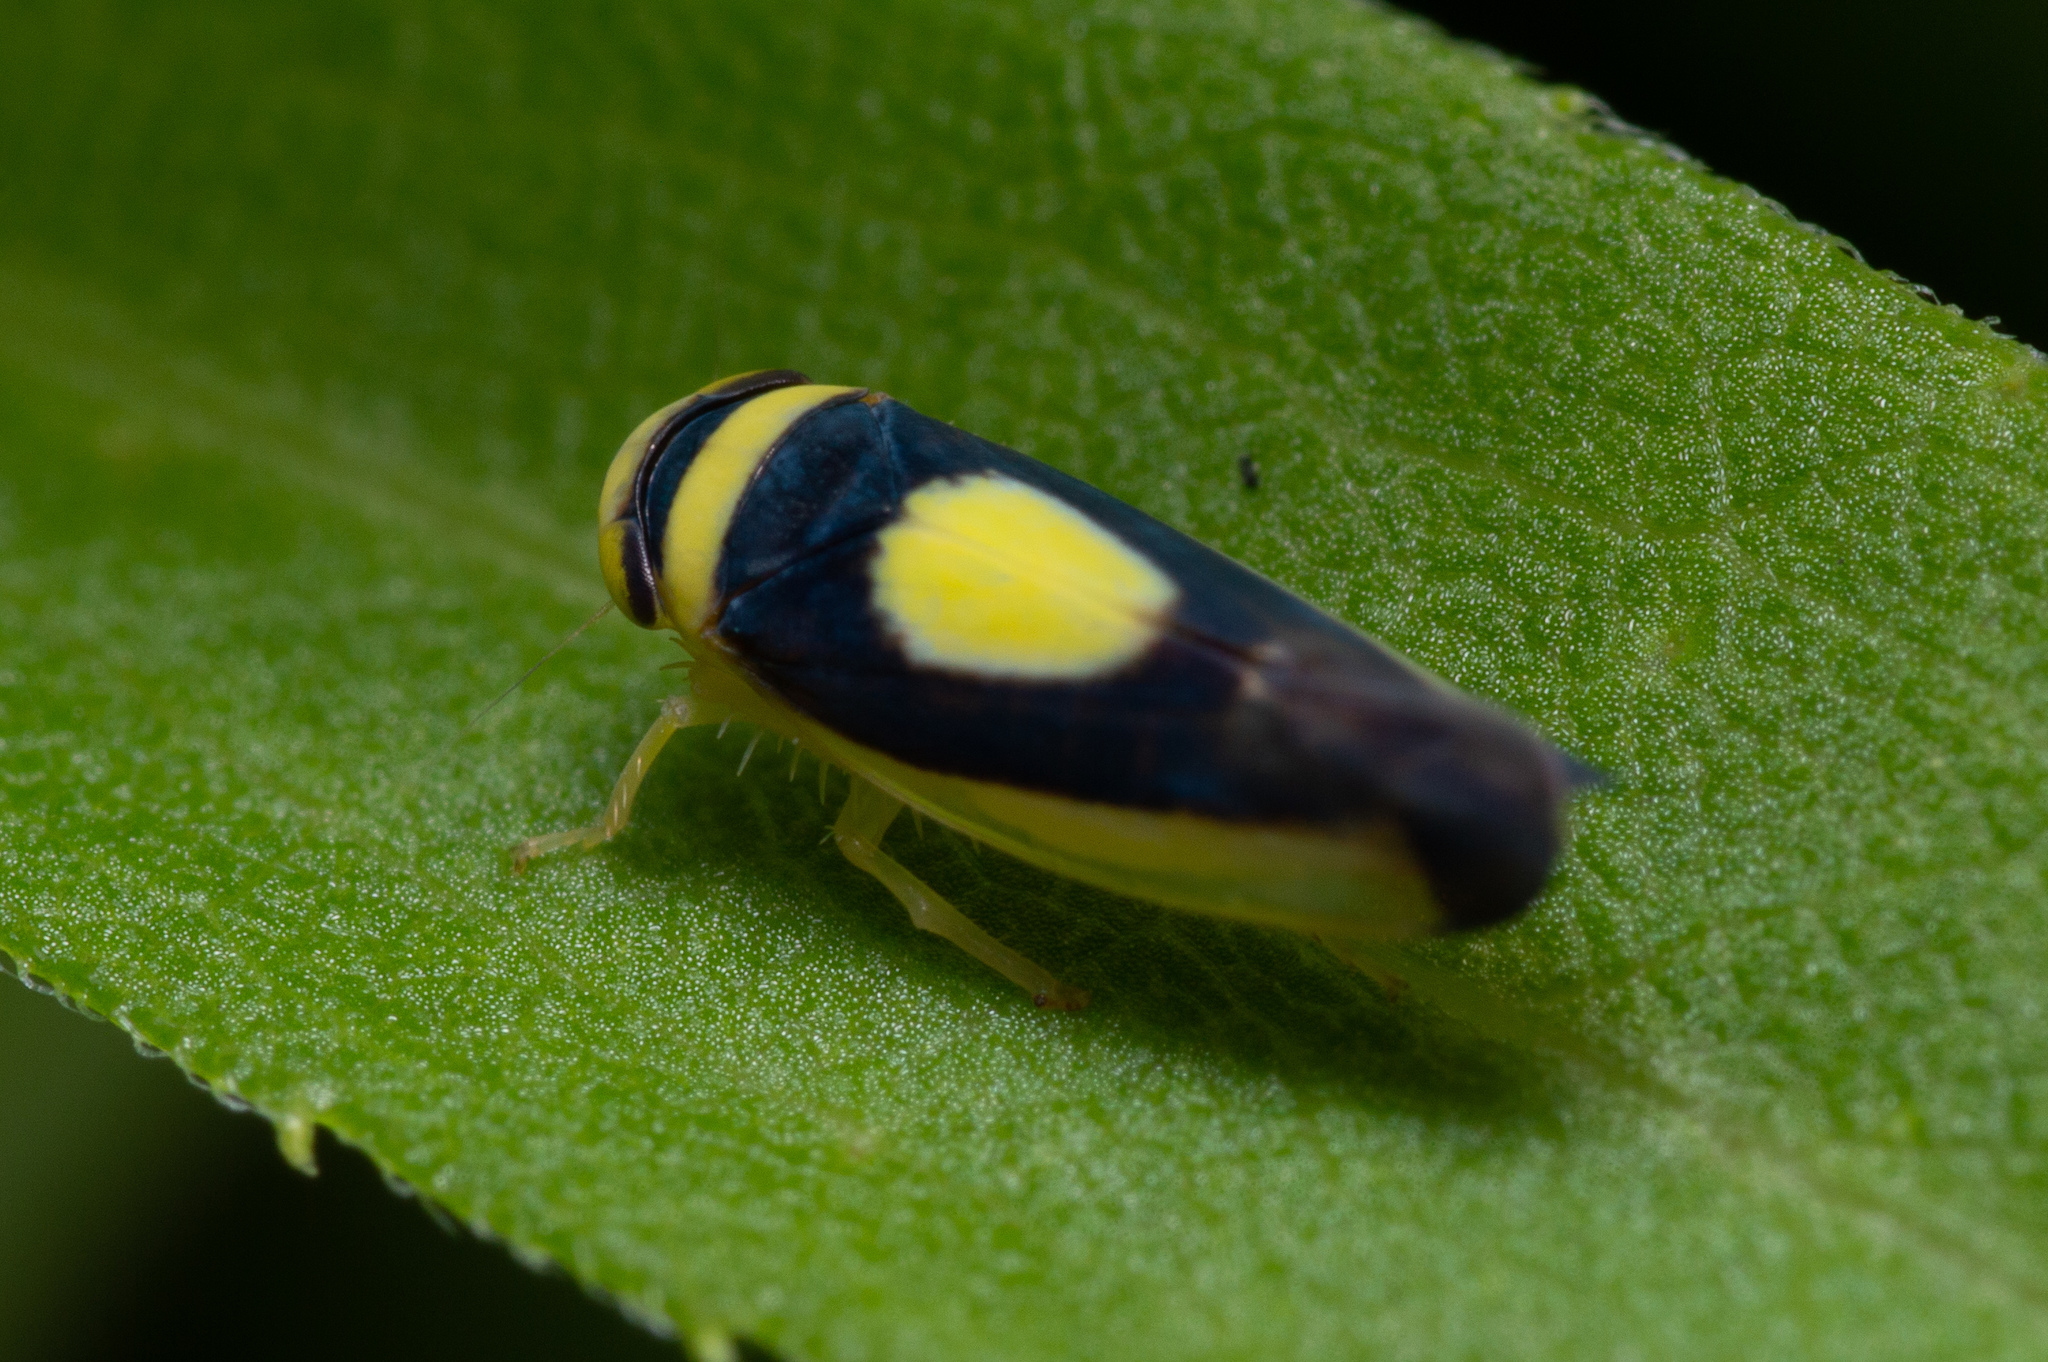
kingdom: Animalia
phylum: Arthropoda
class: Insecta
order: Hemiptera
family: Cicadellidae
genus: Colladonus
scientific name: Colladonus clitellarius
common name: The saddleback leafhopper
